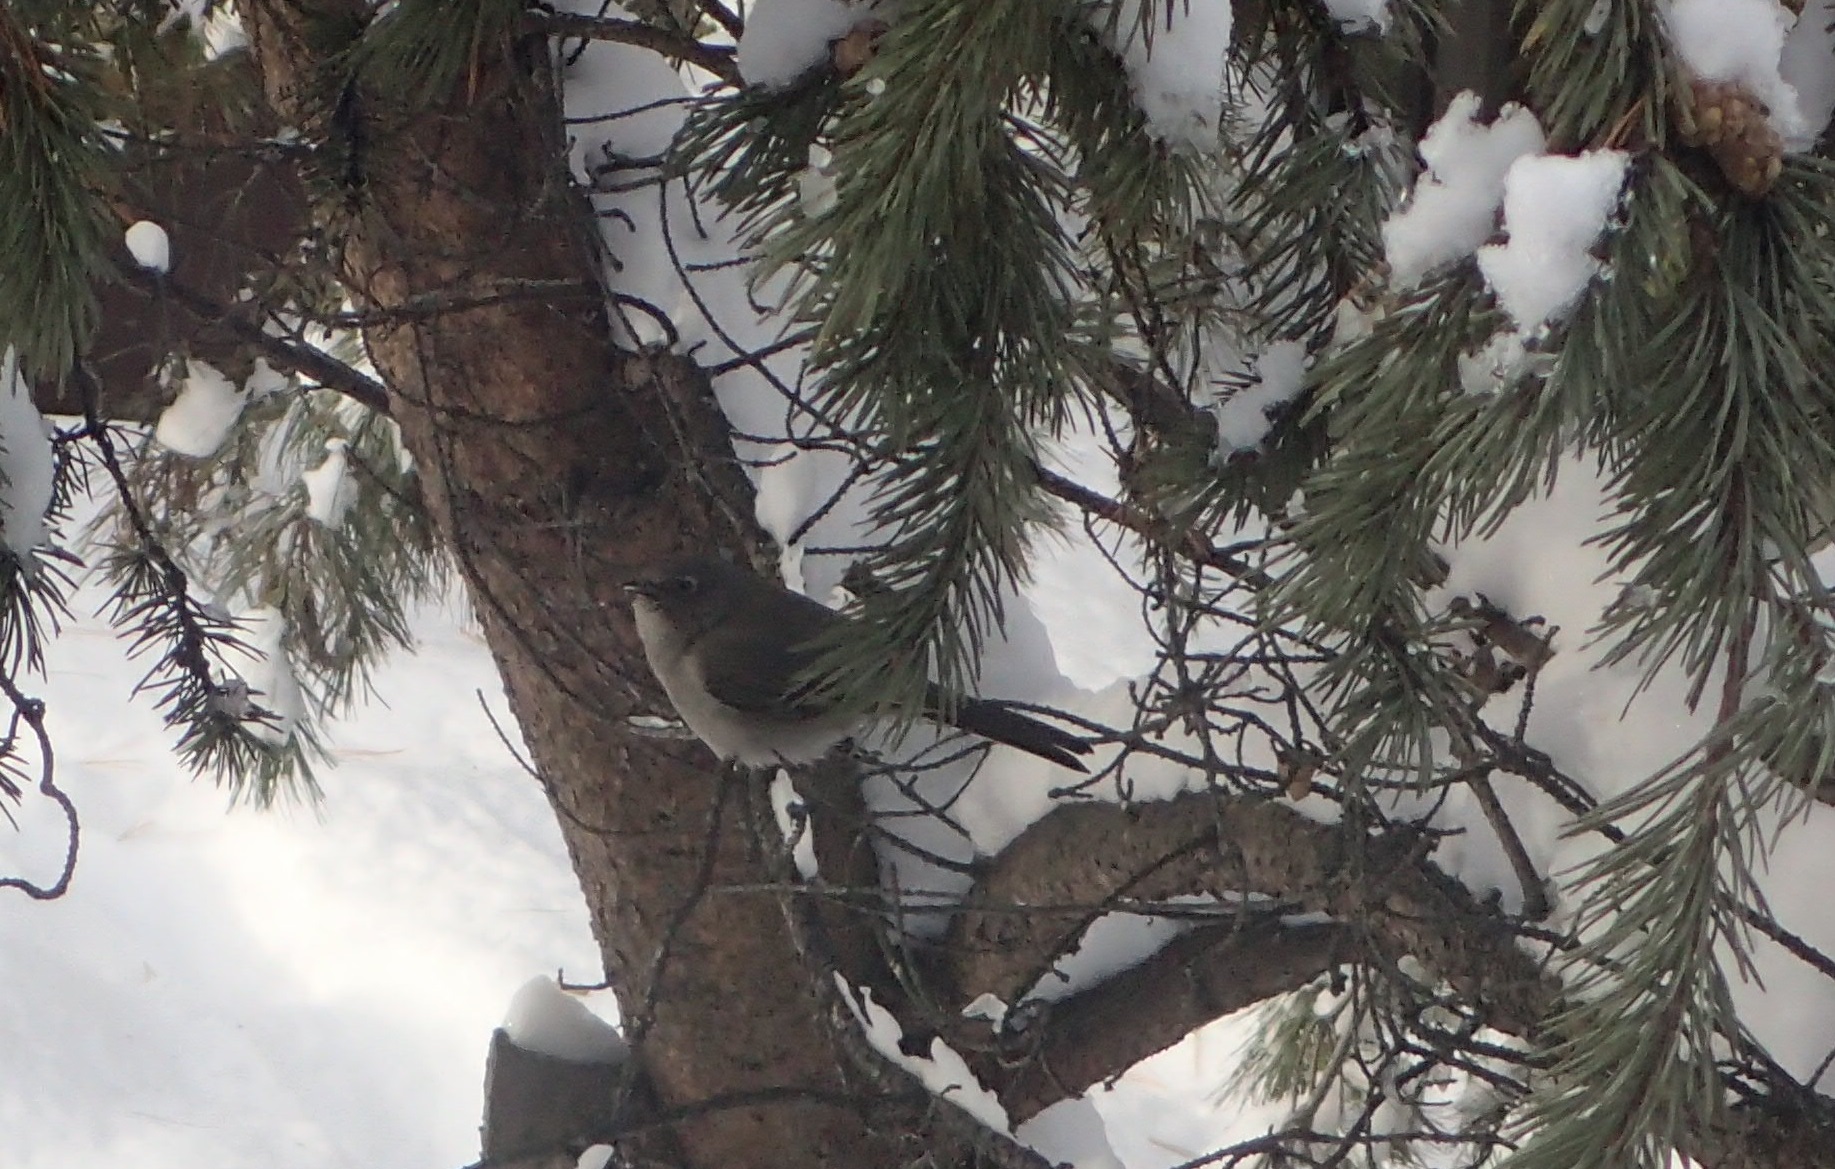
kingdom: Animalia
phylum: Chordata
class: Aves
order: Passeriformes
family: Turdidae
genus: Myadestes
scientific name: Myadestes townsendi
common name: Townsend's solitaire
